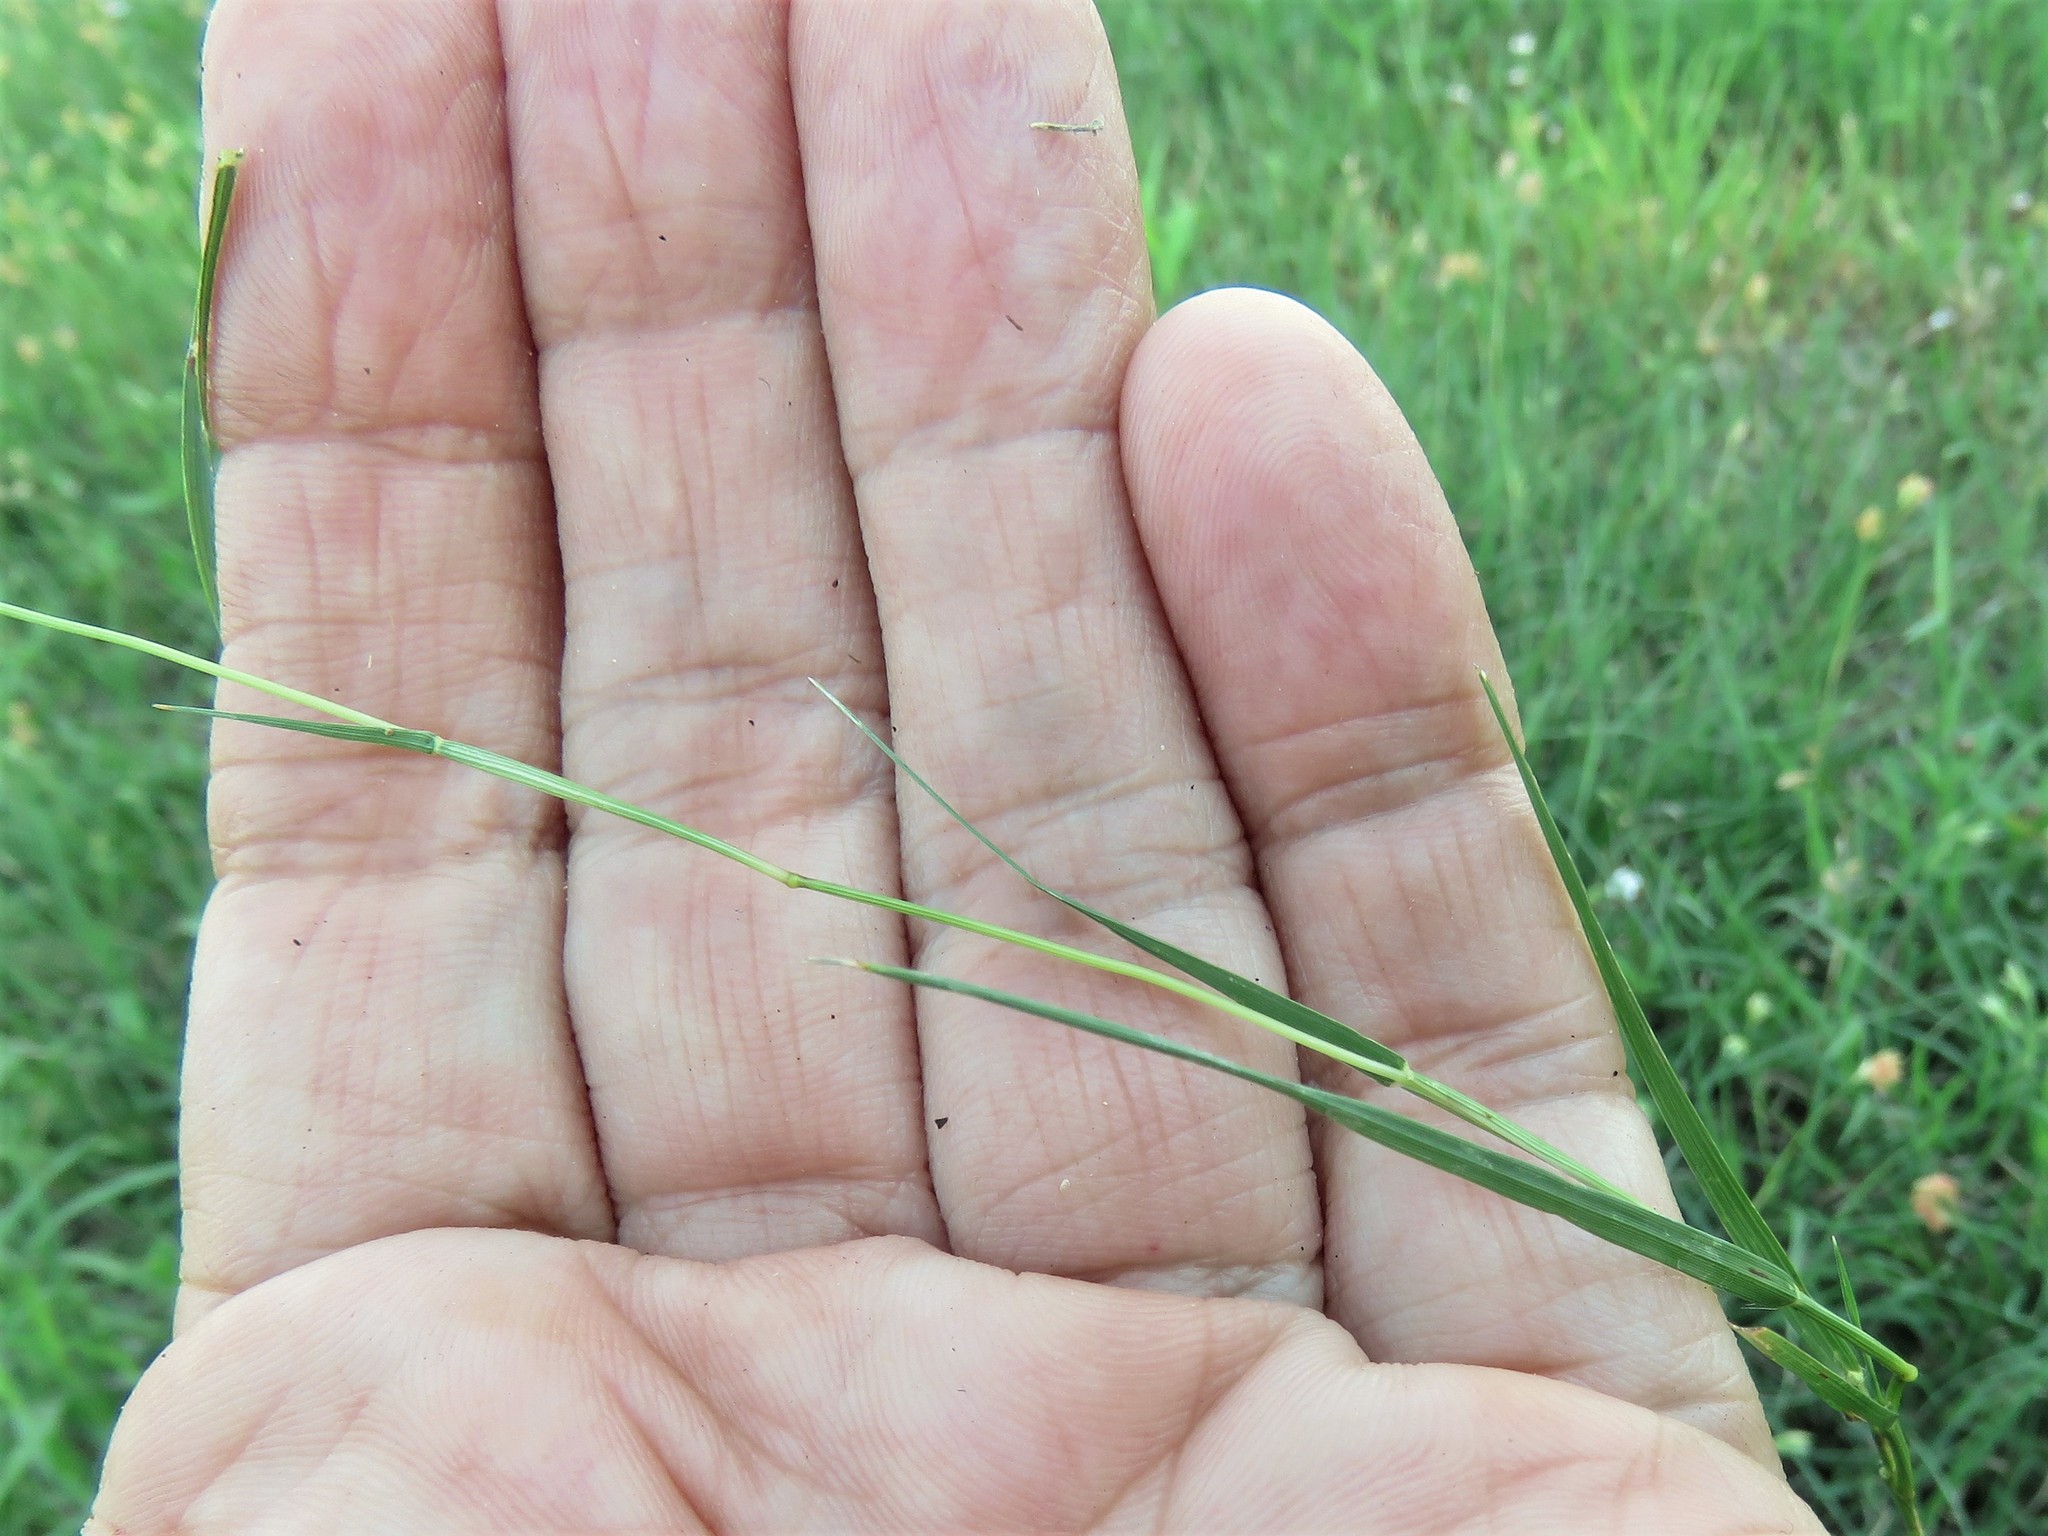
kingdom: Plantae
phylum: Tracheophyta
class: Liliopsida
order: Poales
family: Poaceae
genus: Bouteloua
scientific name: Bouteloua dactyloides
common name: Buffalo grass
